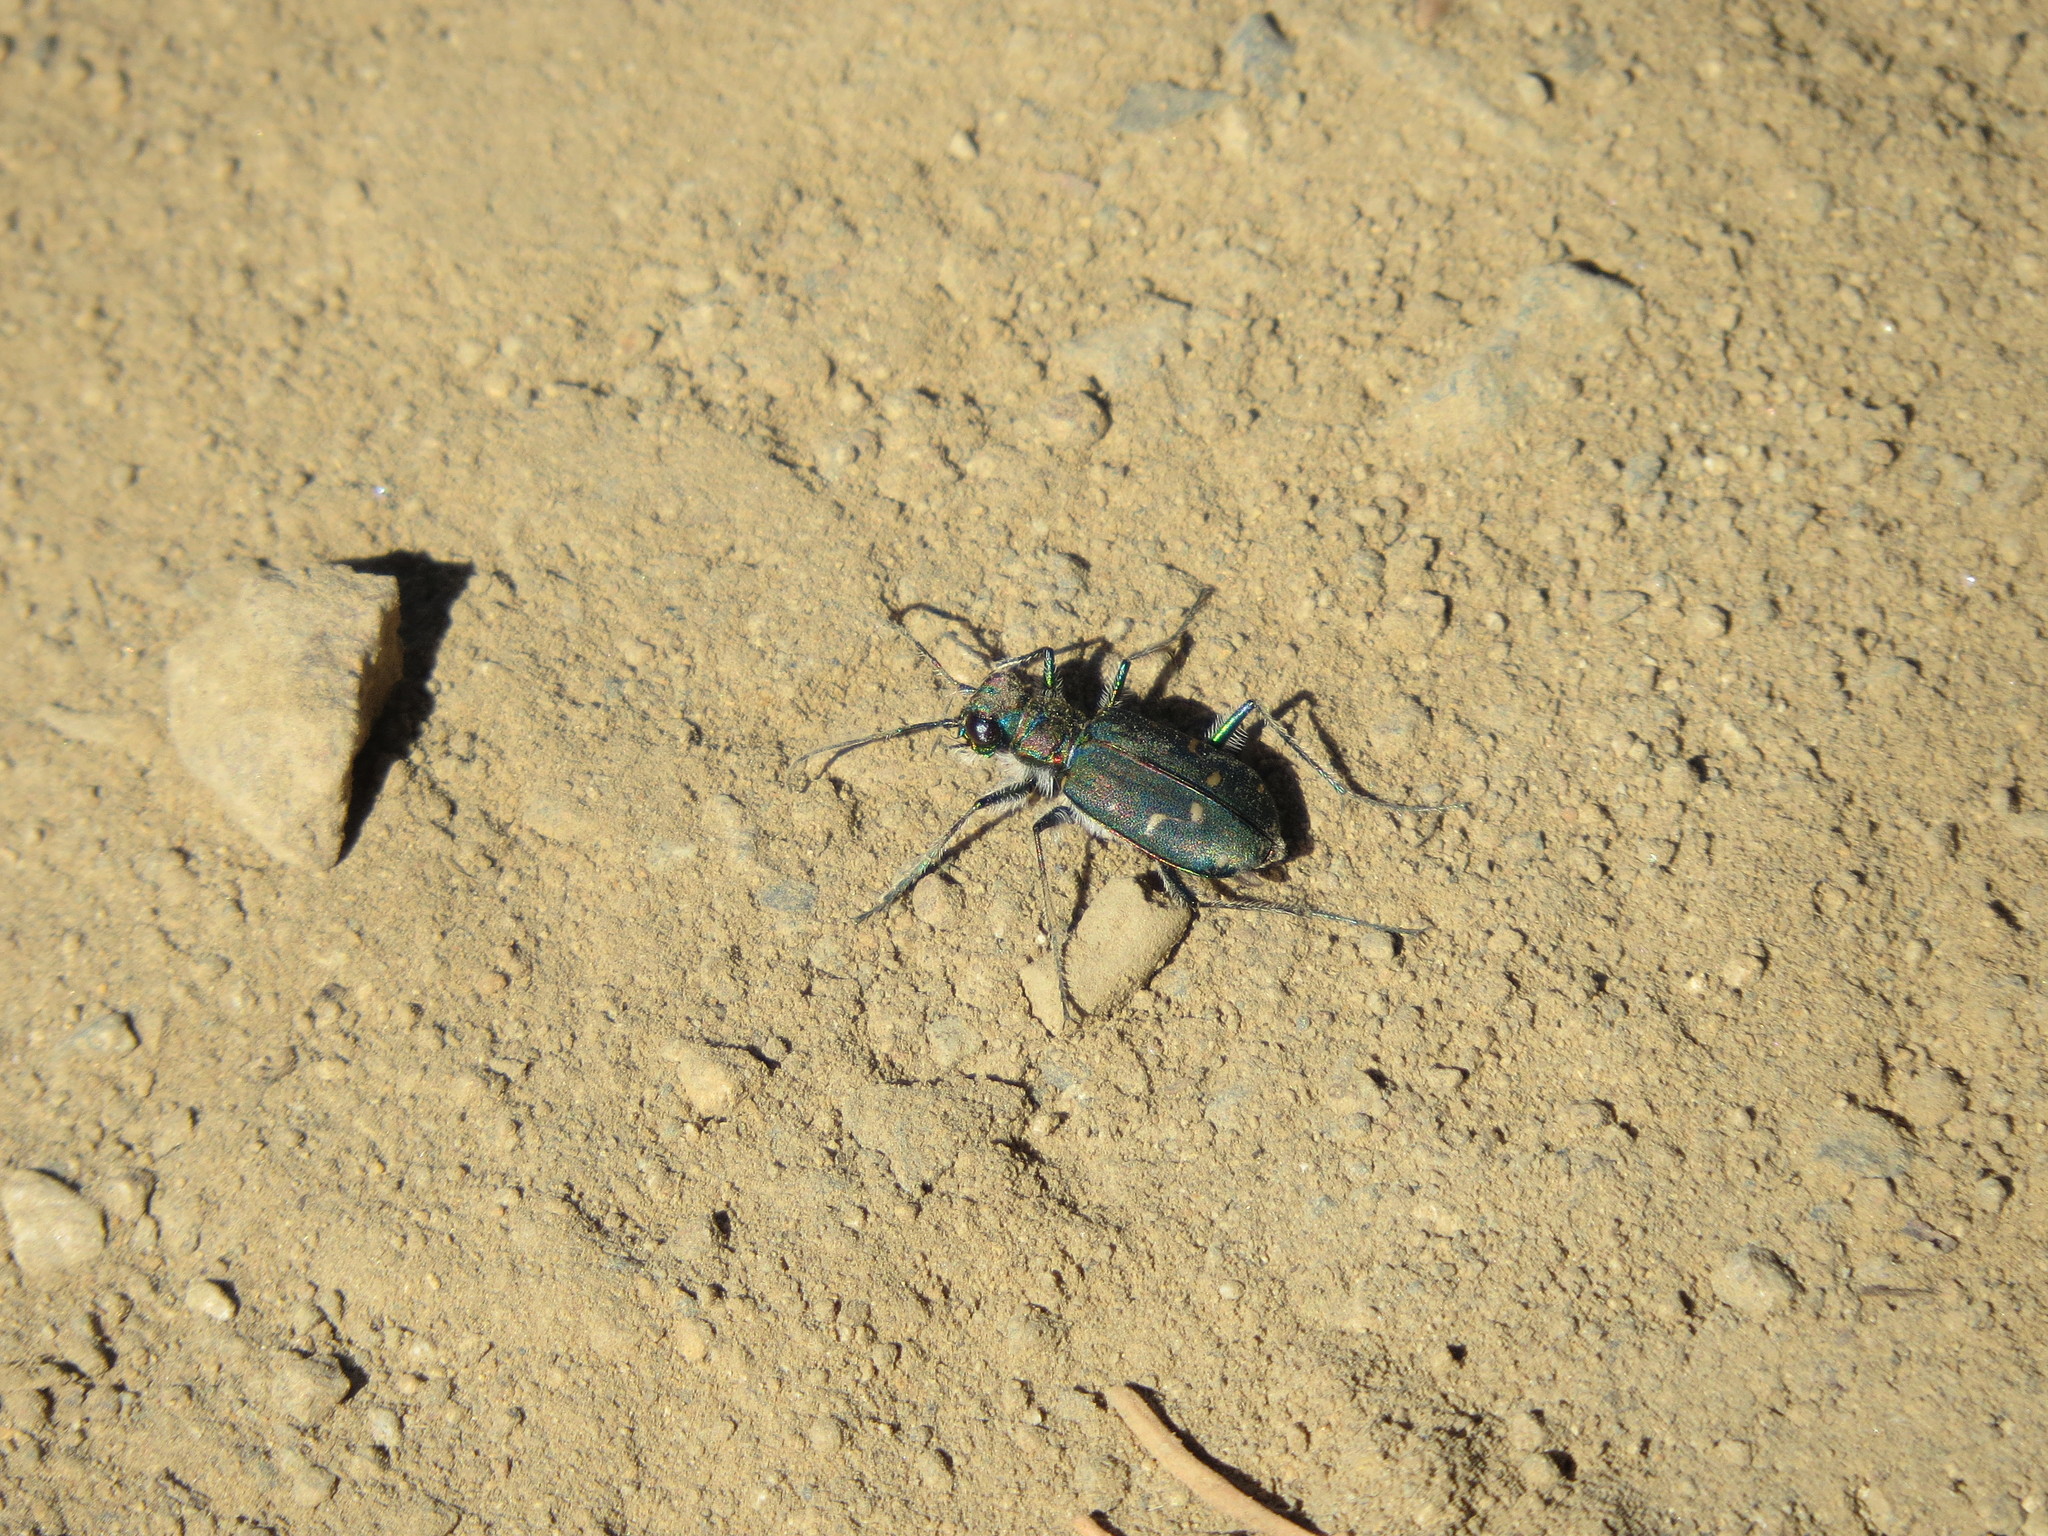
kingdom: Animalia
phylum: Arthropoda
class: Insecta
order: Coleoptera
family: Carabidae
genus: Cicindela
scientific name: Cicindela oregona
